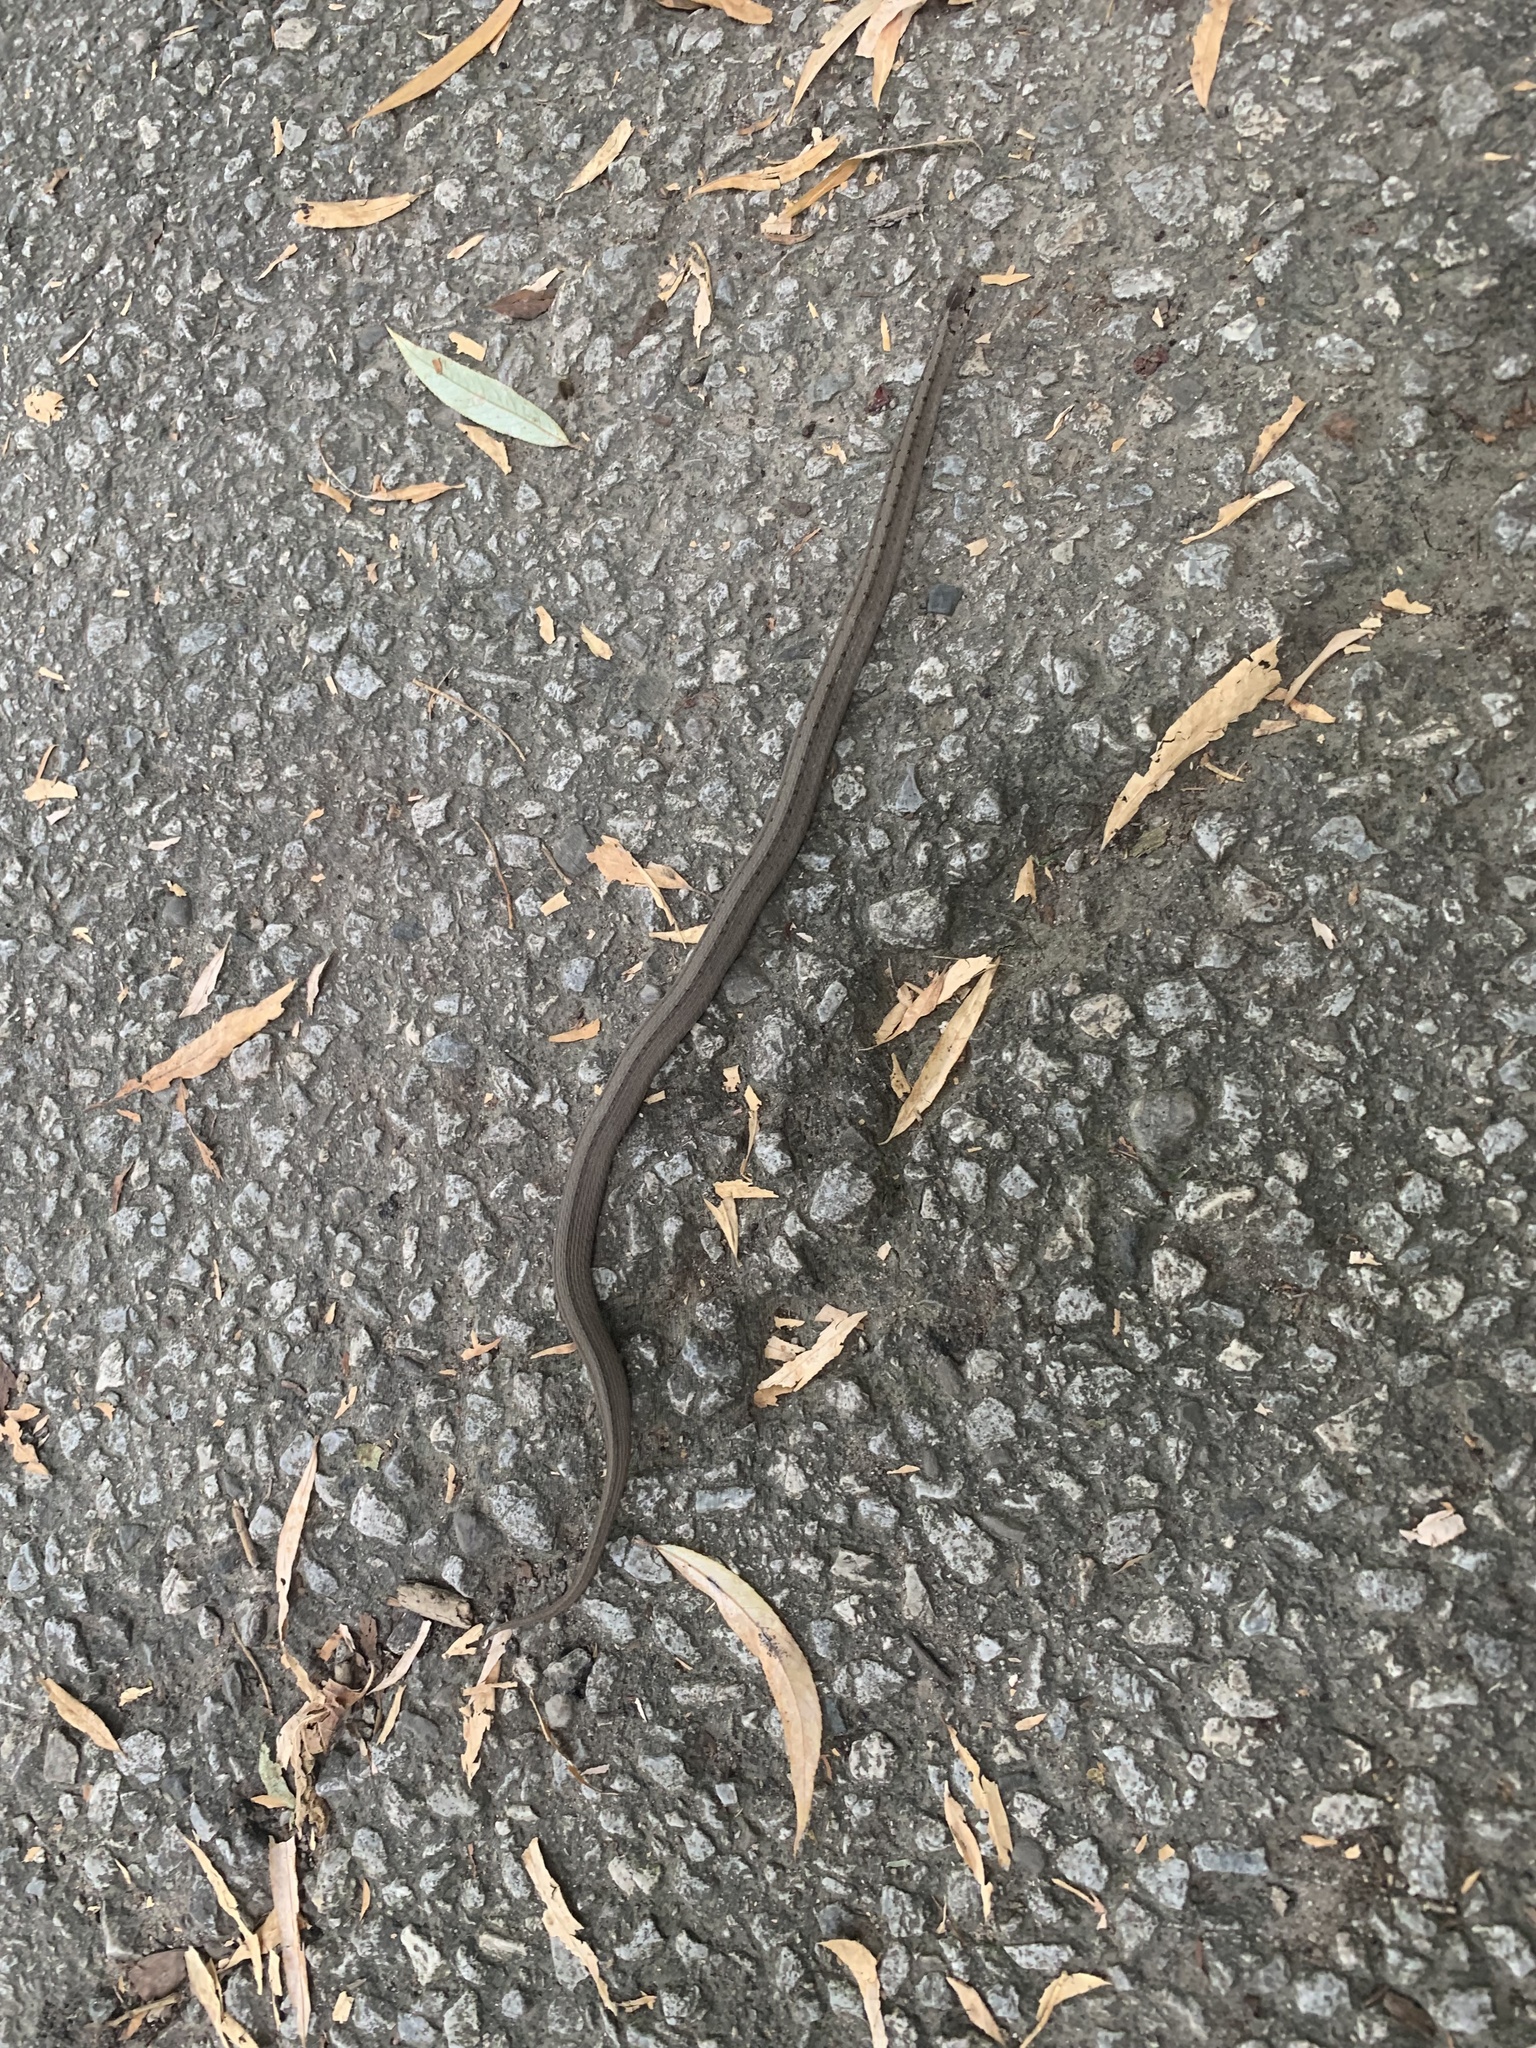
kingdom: Animalia
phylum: Chordata
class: Squamata
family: Colubridae
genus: Storeria
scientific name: Storeria dekayi
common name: (dekay’s) brown snake
